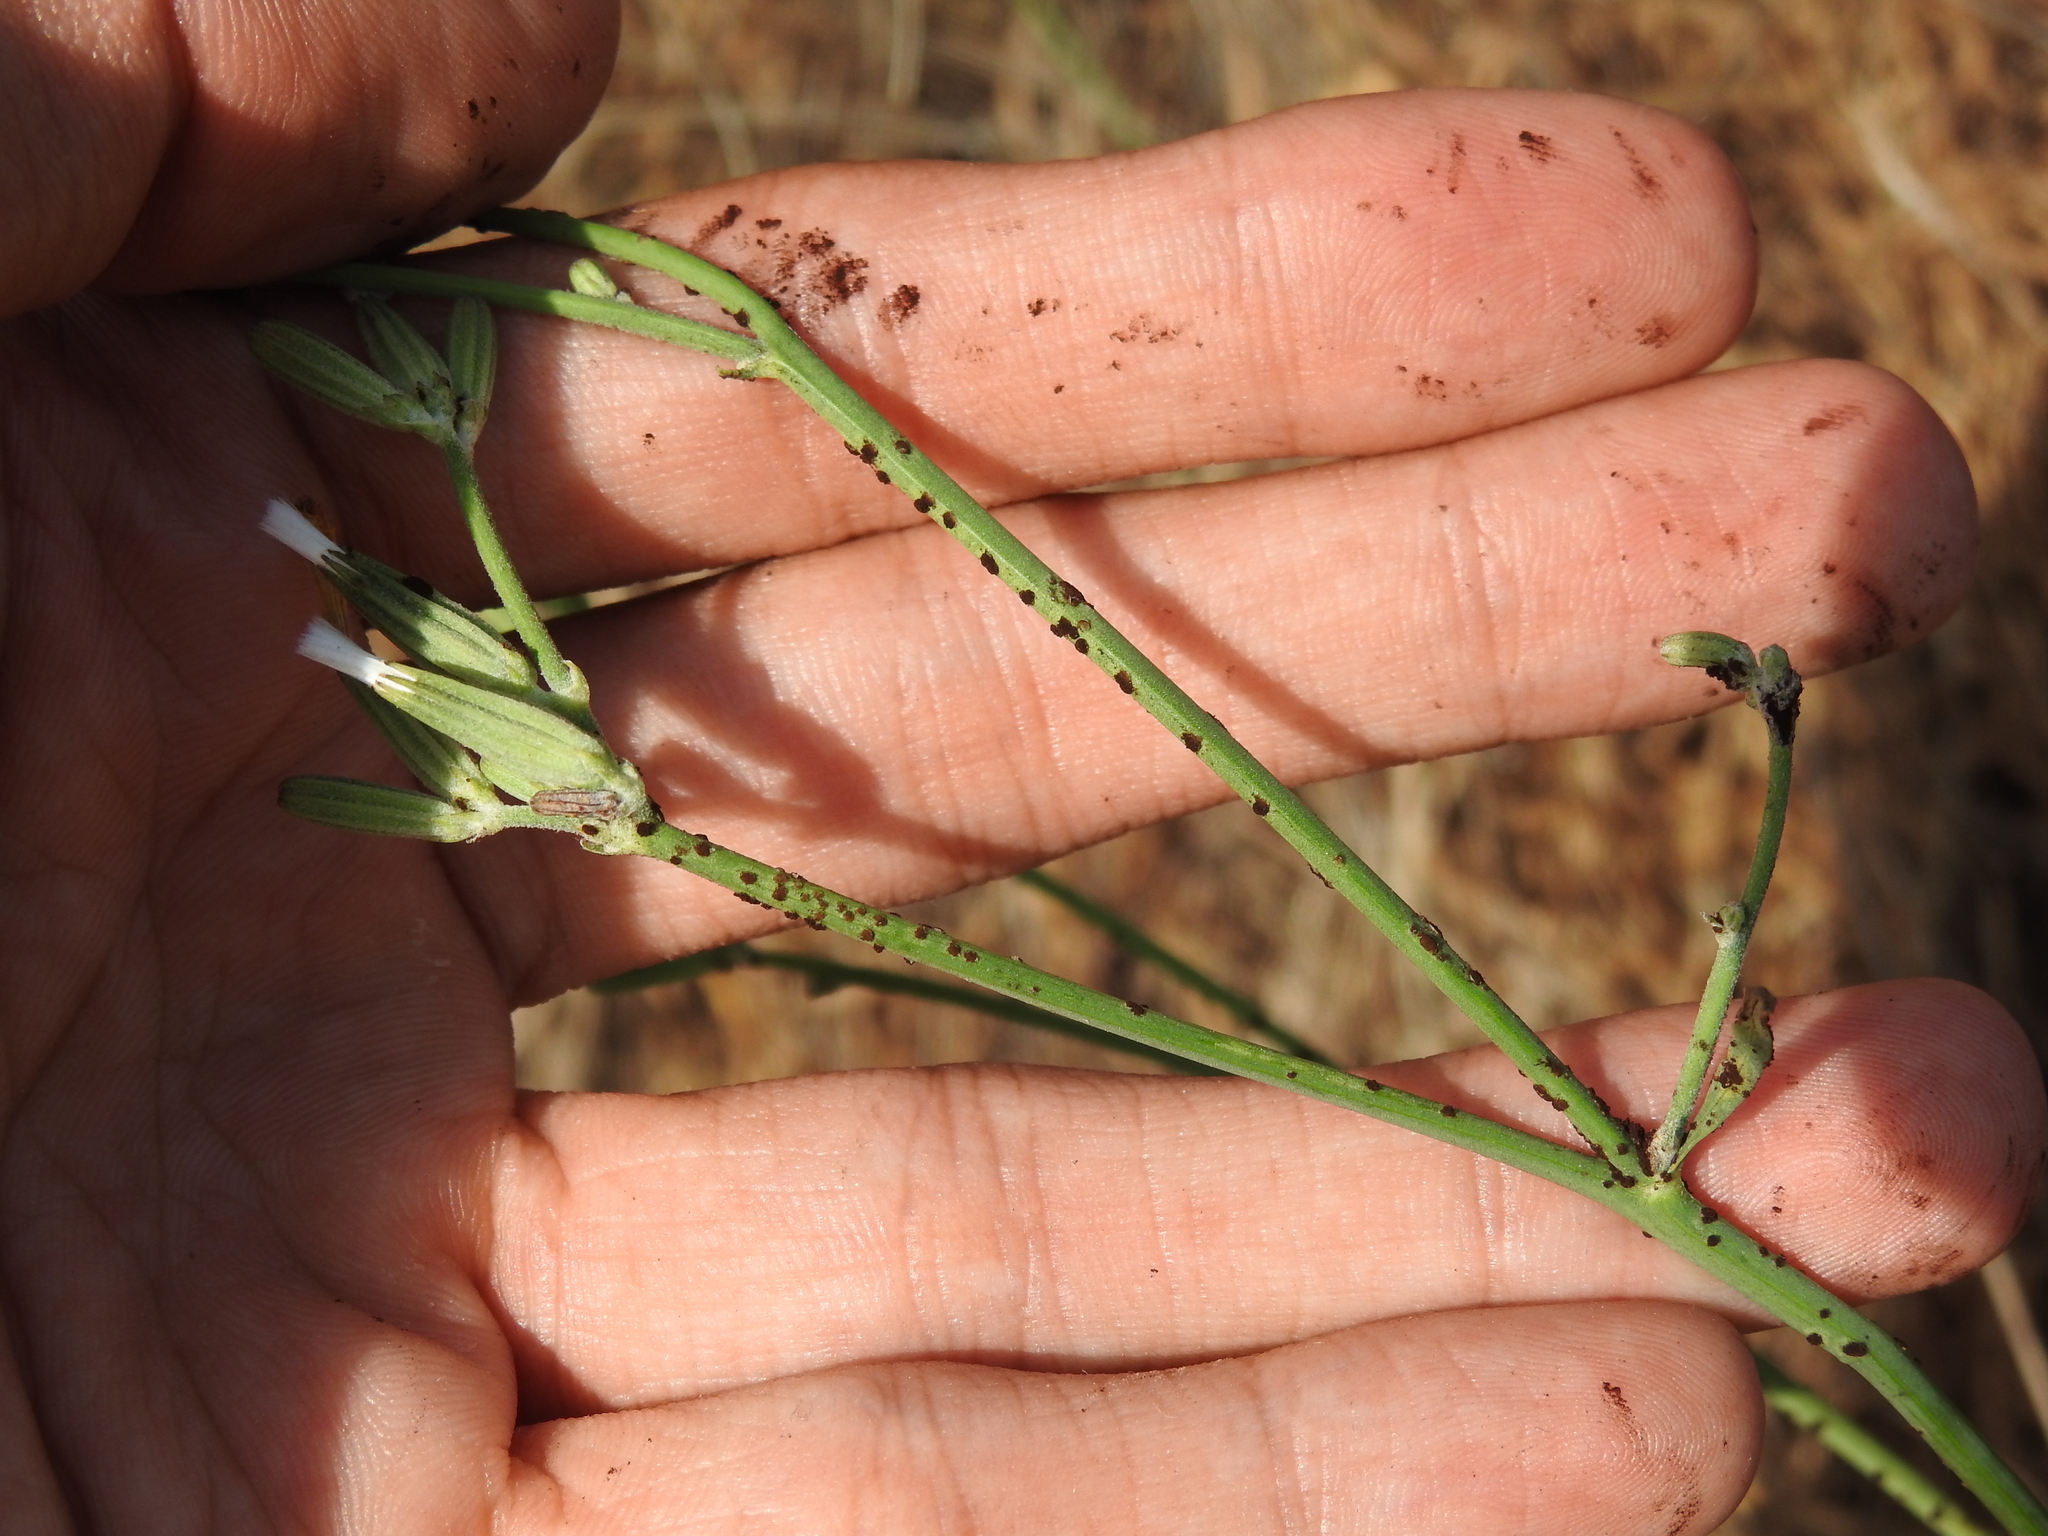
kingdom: Fungi
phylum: Basidiomycota
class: Pucciniomycetes
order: Pucciniales
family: Pucciniaceae
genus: Puccinia
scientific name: Puccinia chondrillina
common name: Rust fungus
